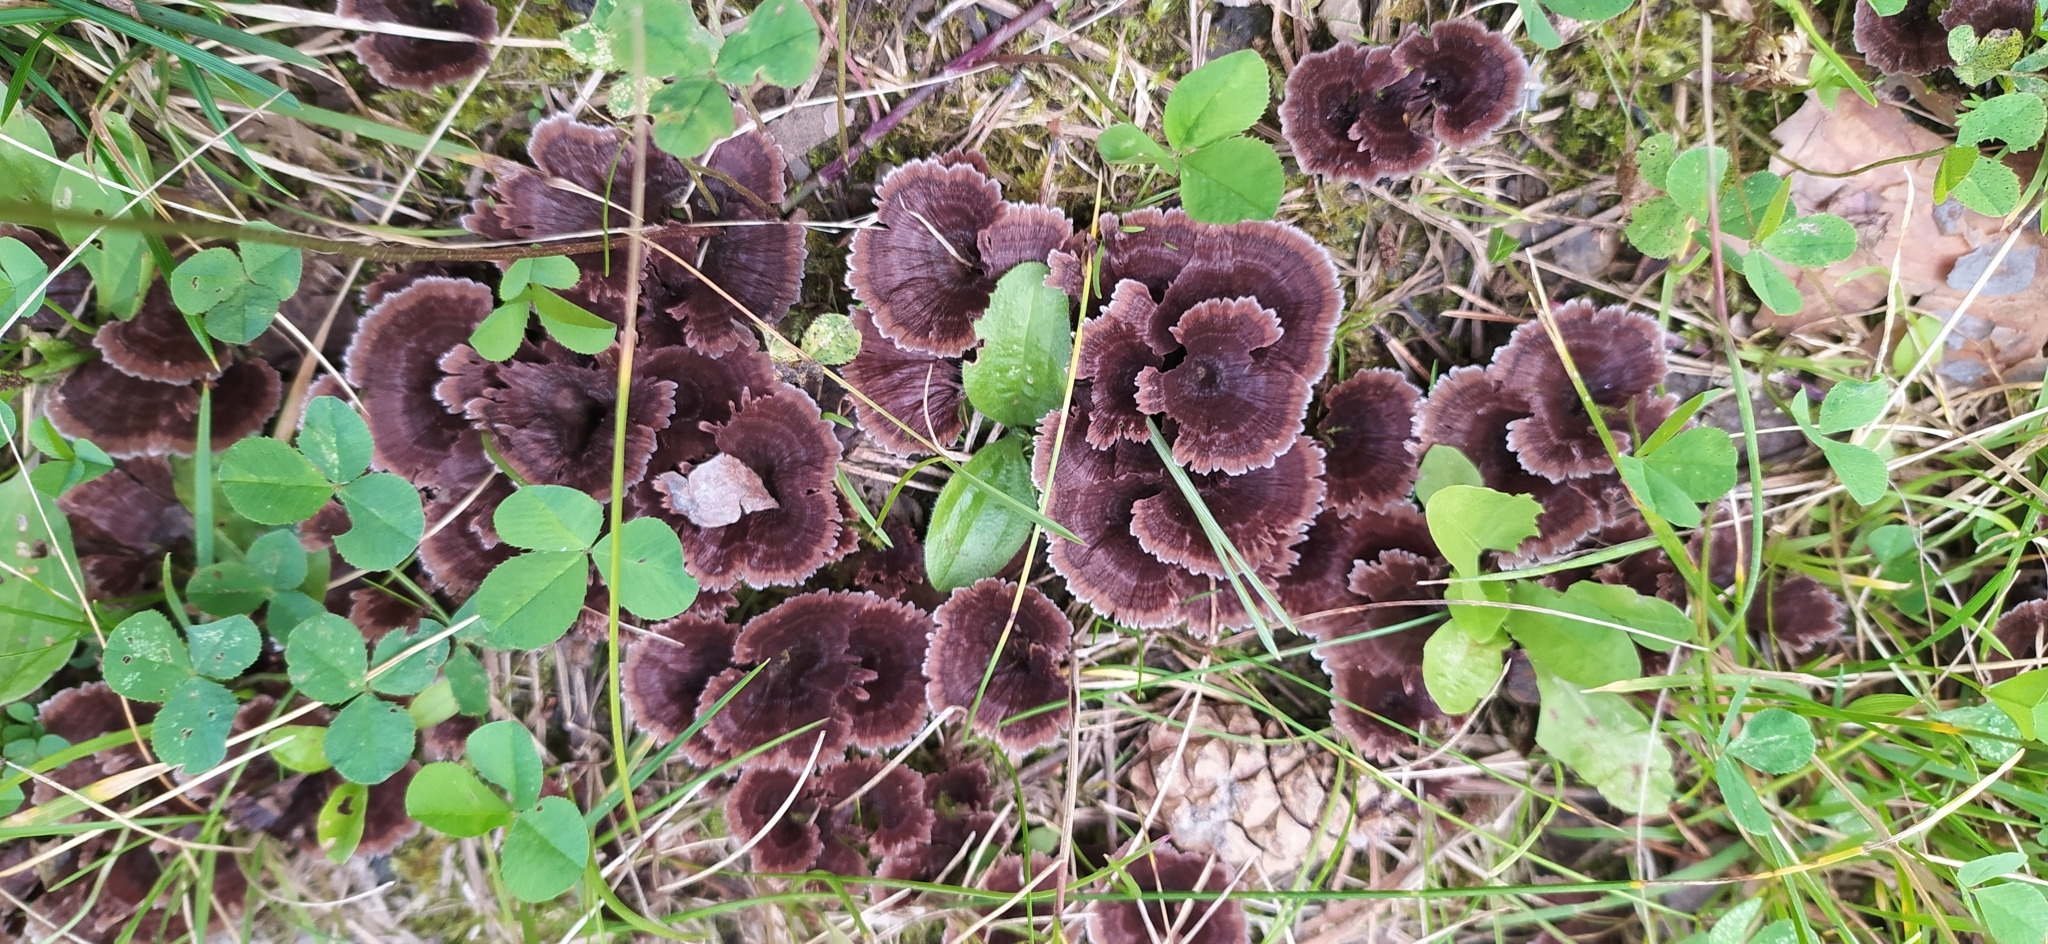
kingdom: Fungi
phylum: Basidiomycota
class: Agaricomycetes
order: Thelephorales
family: Thelephoraceae
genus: Thelephora
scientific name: Thelephora caryophyllea
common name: Carnation earthfan
